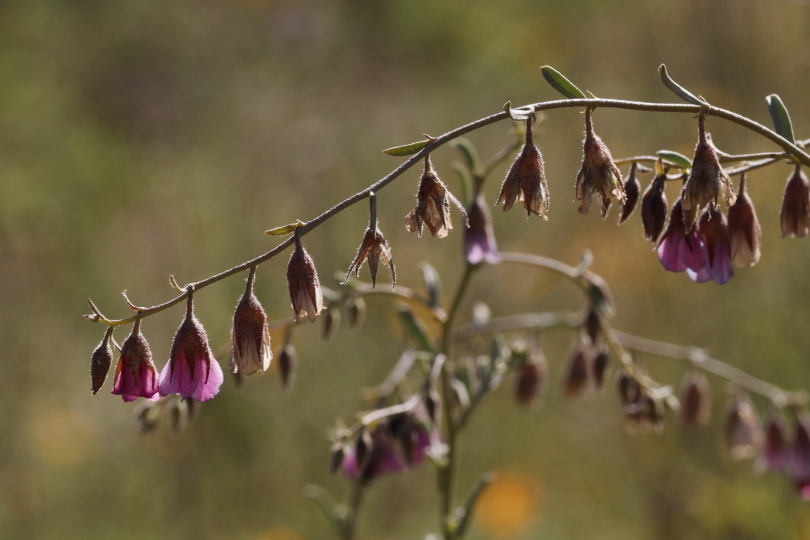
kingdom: Plantae
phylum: Tracheophyta
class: Magnoliopsida
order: Malvales
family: Malvaceae
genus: Hermannia
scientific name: Hermannia trifurca
